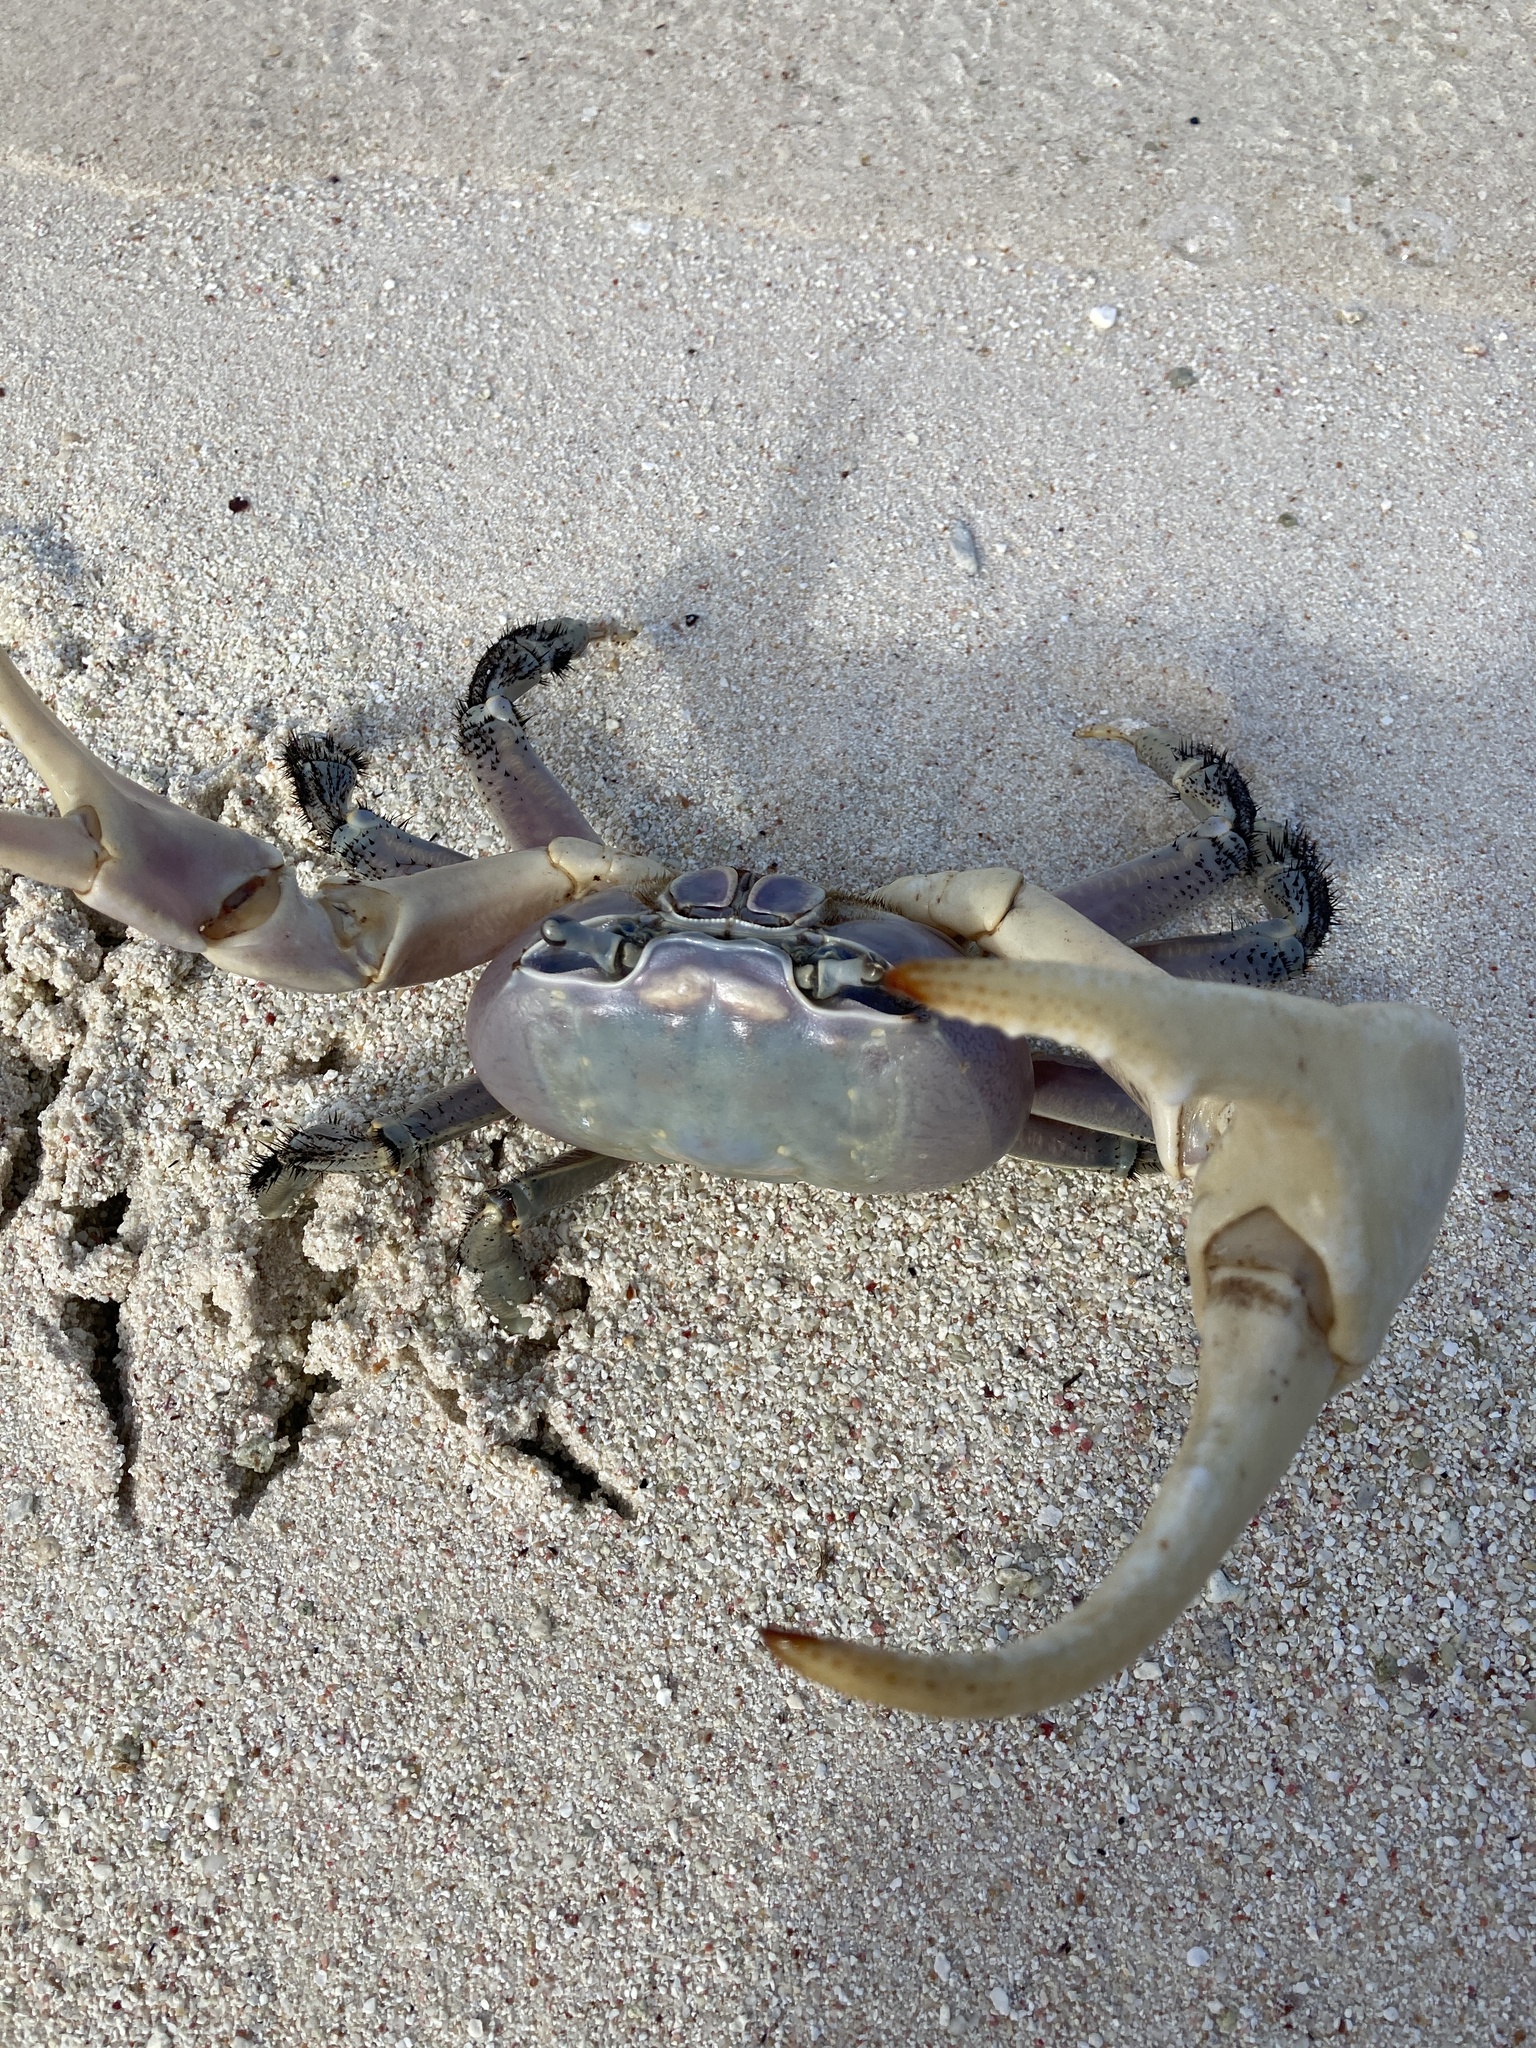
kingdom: Animalia
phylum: Arthropoda
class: Malacostraca
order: Decapoda
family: Gecarcinidae
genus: Cardisoma
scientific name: Cardisoma carnifex
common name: Brown land crab
